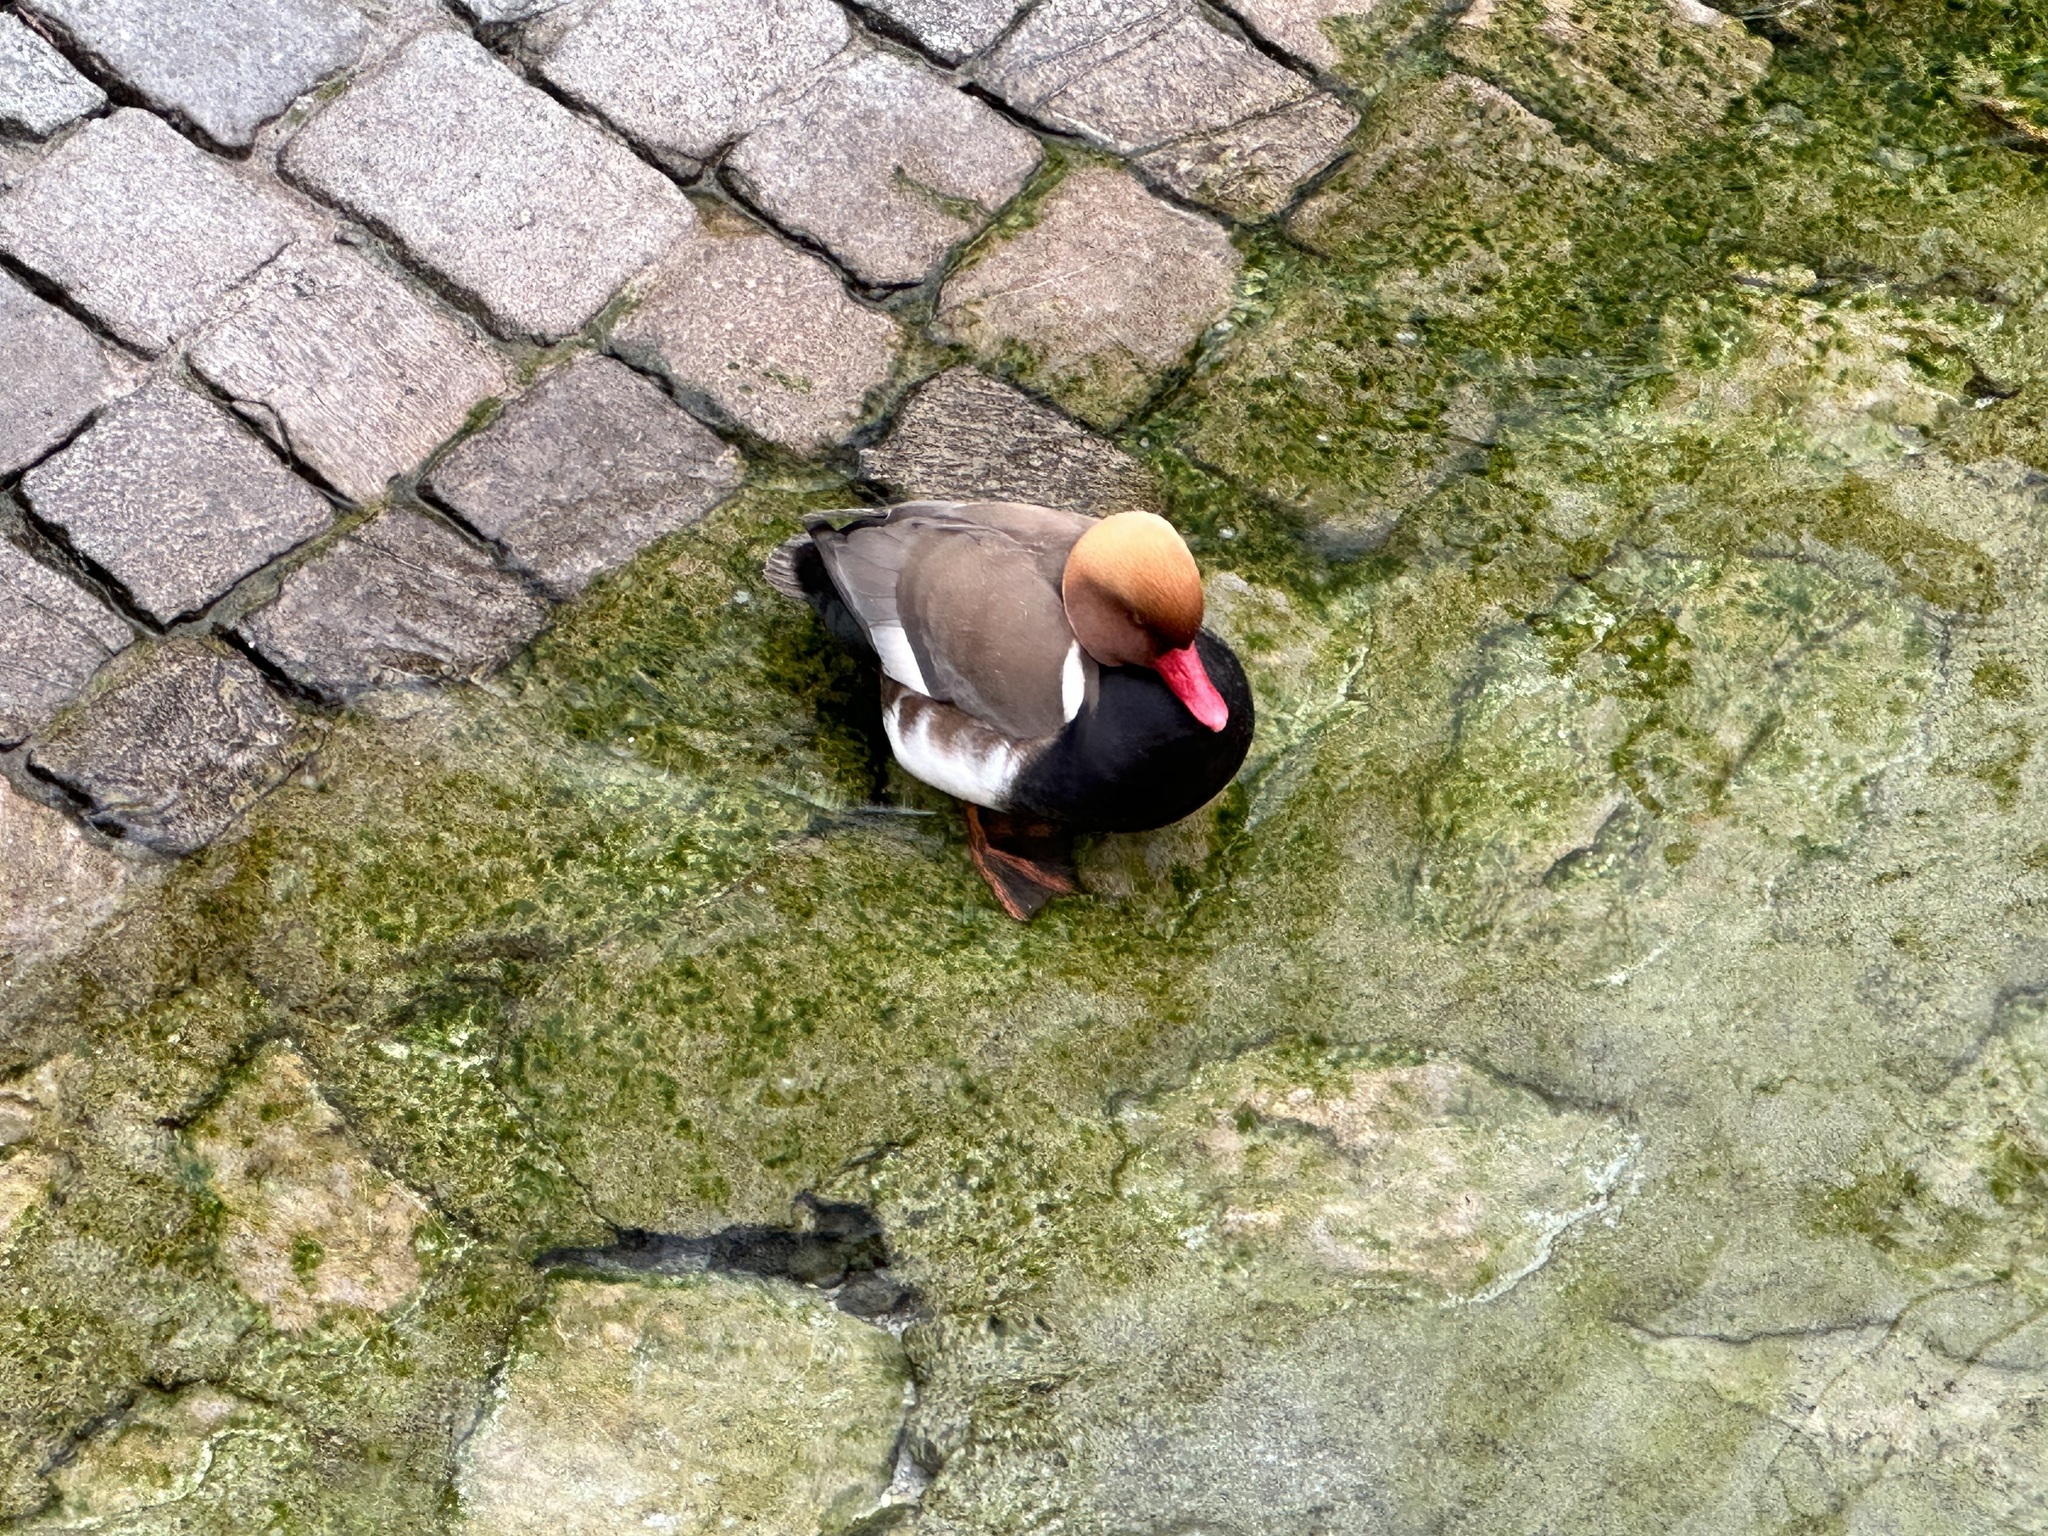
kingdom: Animalia
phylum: Chordata
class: Aves
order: Anseriformes
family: Anatidae
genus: Netta
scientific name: Netta rufina
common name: Red-crested pochard
